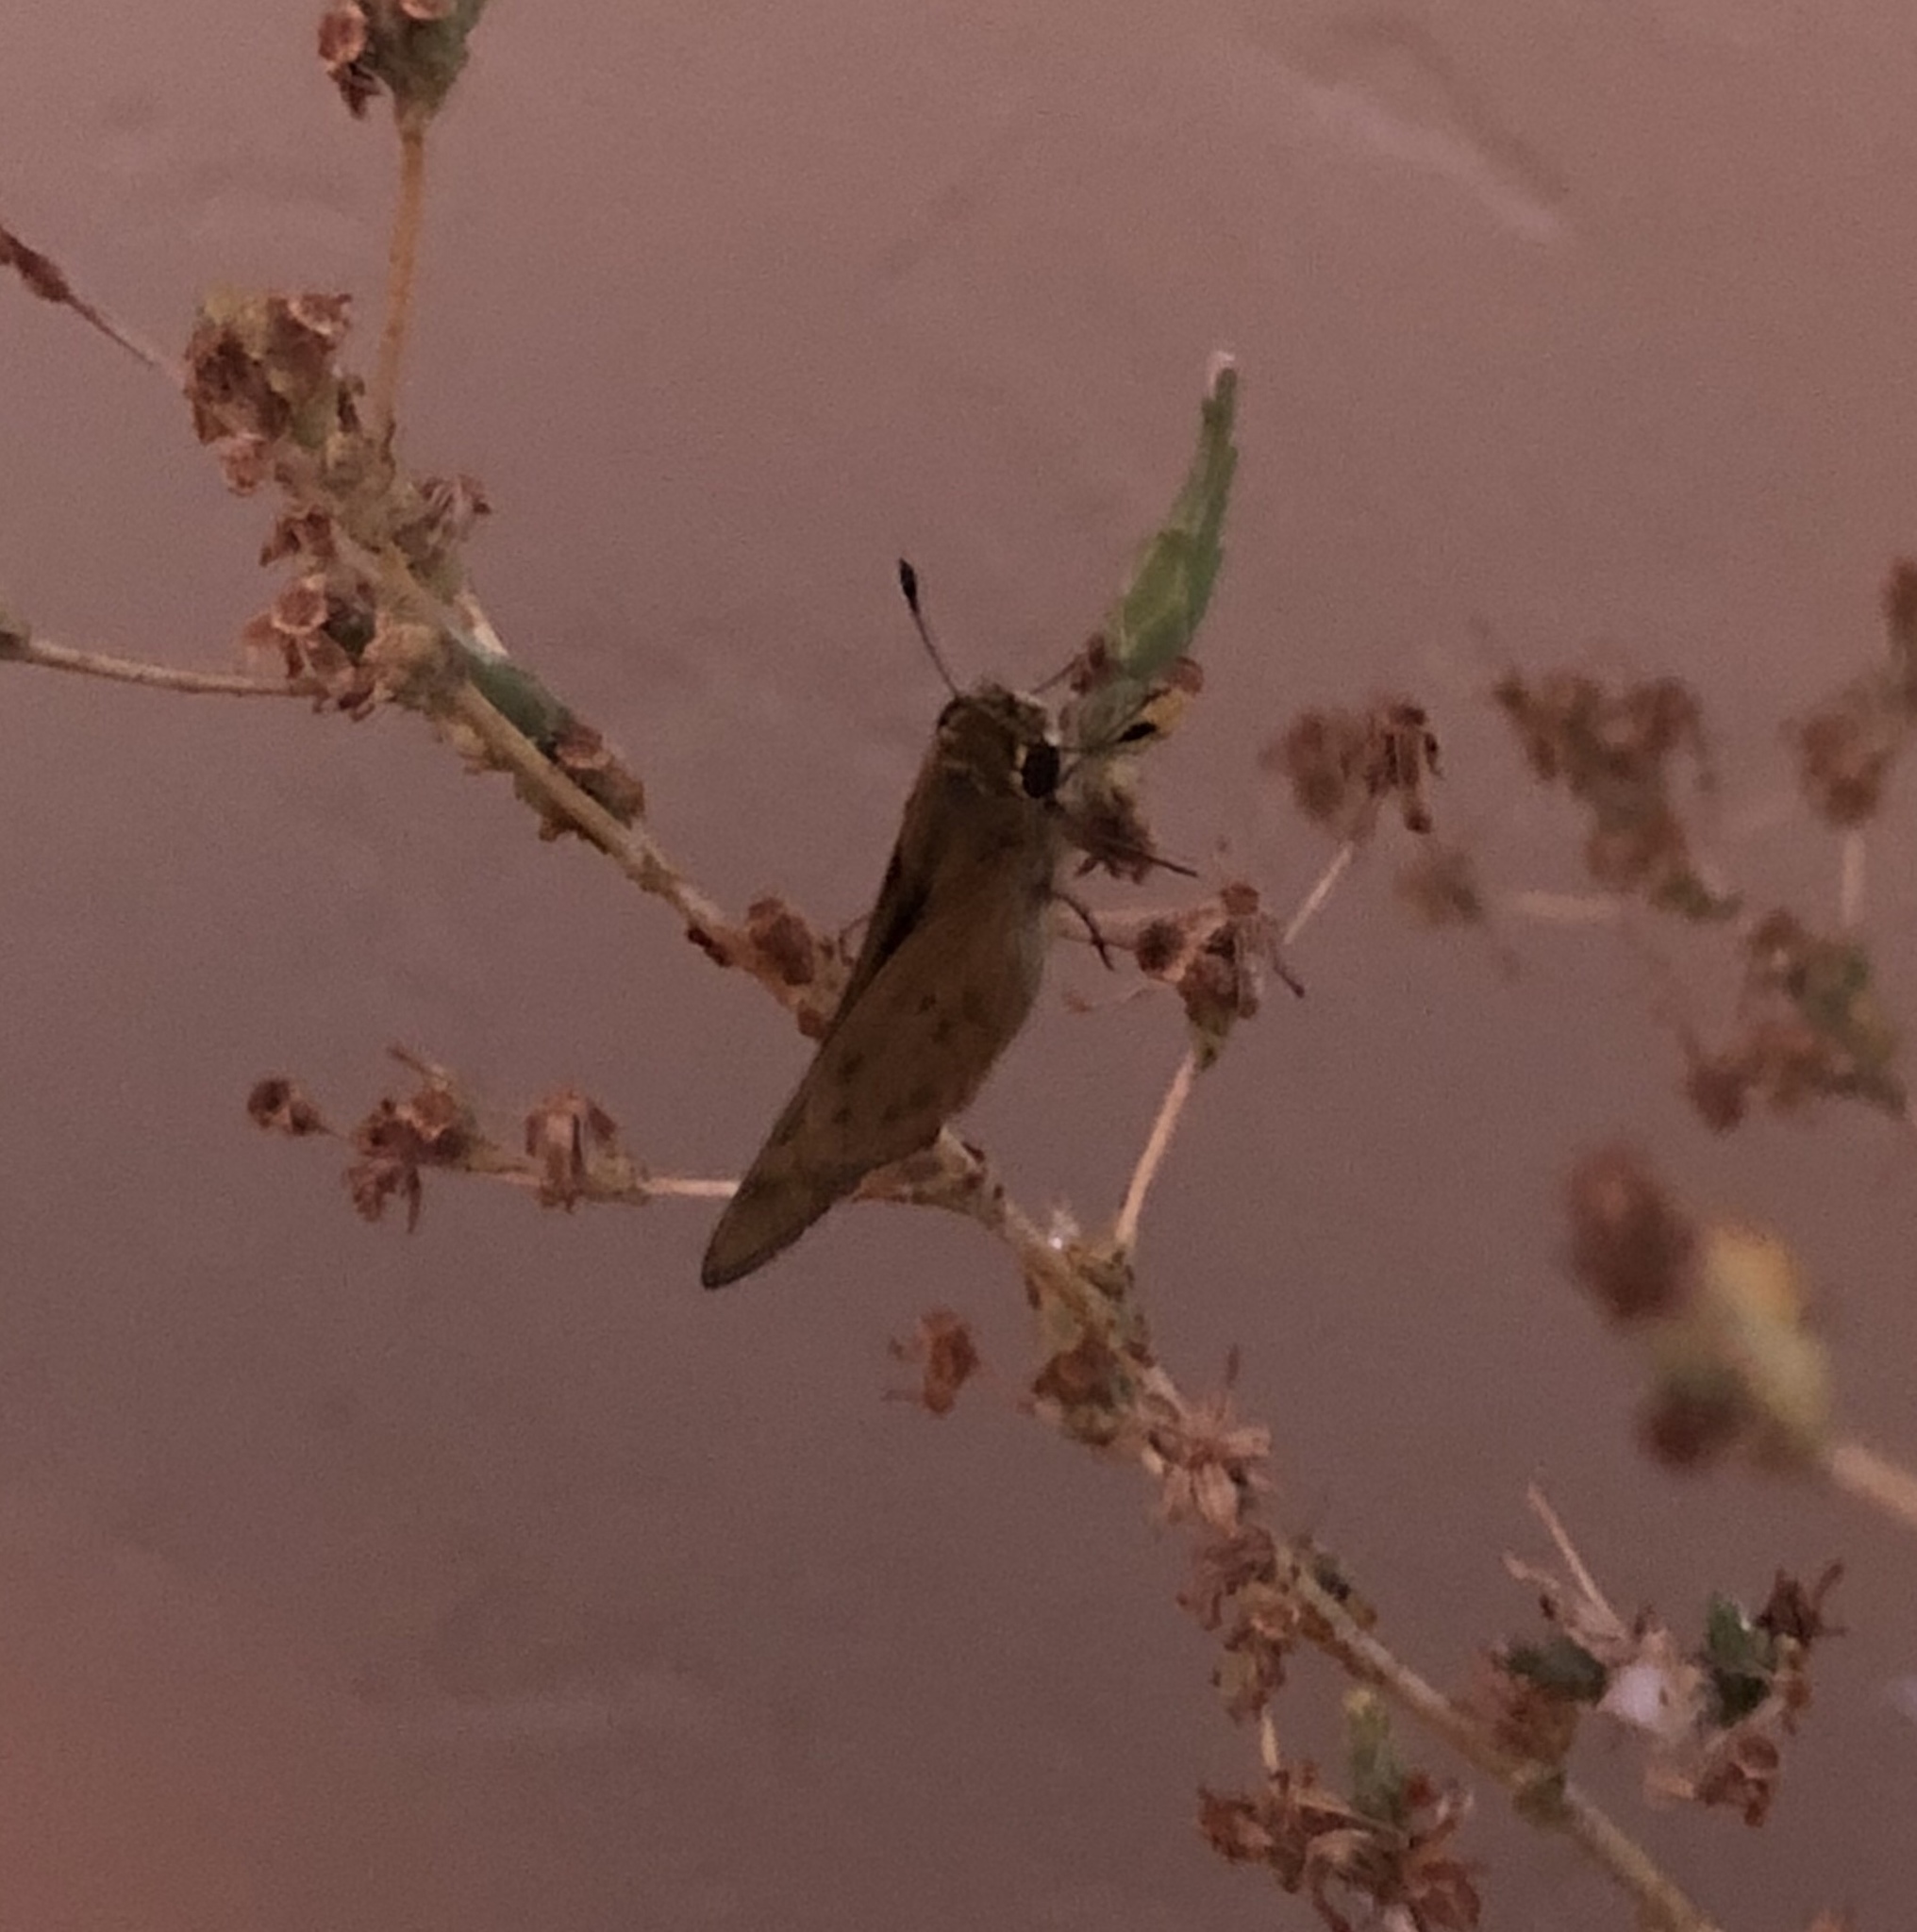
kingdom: Animalia
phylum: Arthropoda
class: Insecta
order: Lepidoptera
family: Hesperiidae
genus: Hylephila
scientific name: Hylephila phyleus
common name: Fiery skipper
